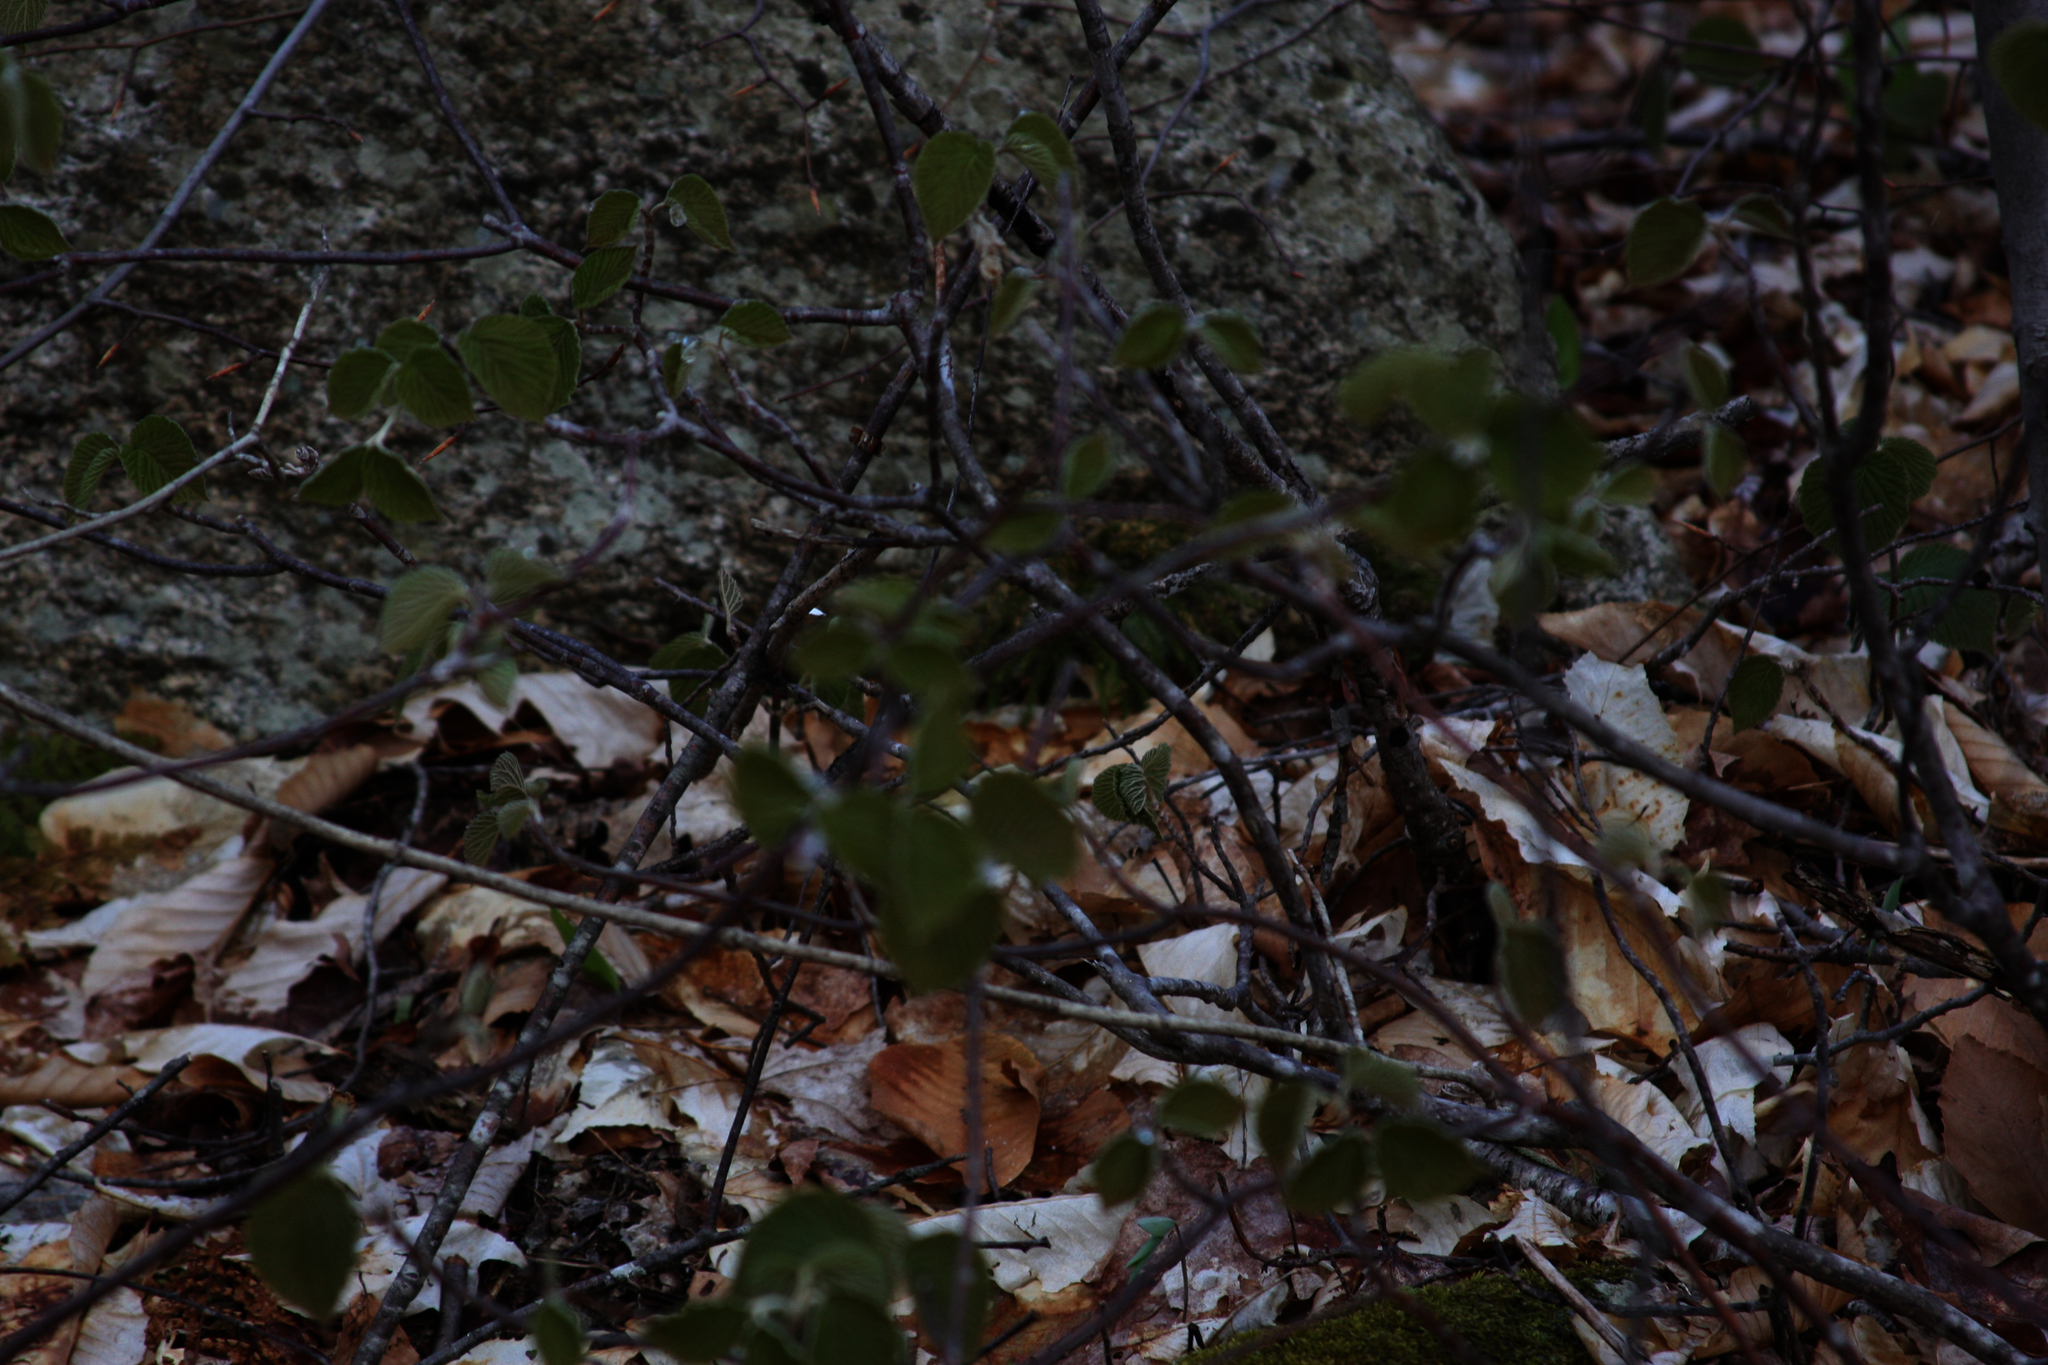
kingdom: Plantae
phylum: Tracheophyta
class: Magnoliopsida
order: Dipsacales
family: Viburnaceae
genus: Viburnum
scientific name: Viburnum lantanoides
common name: Hobblebush
